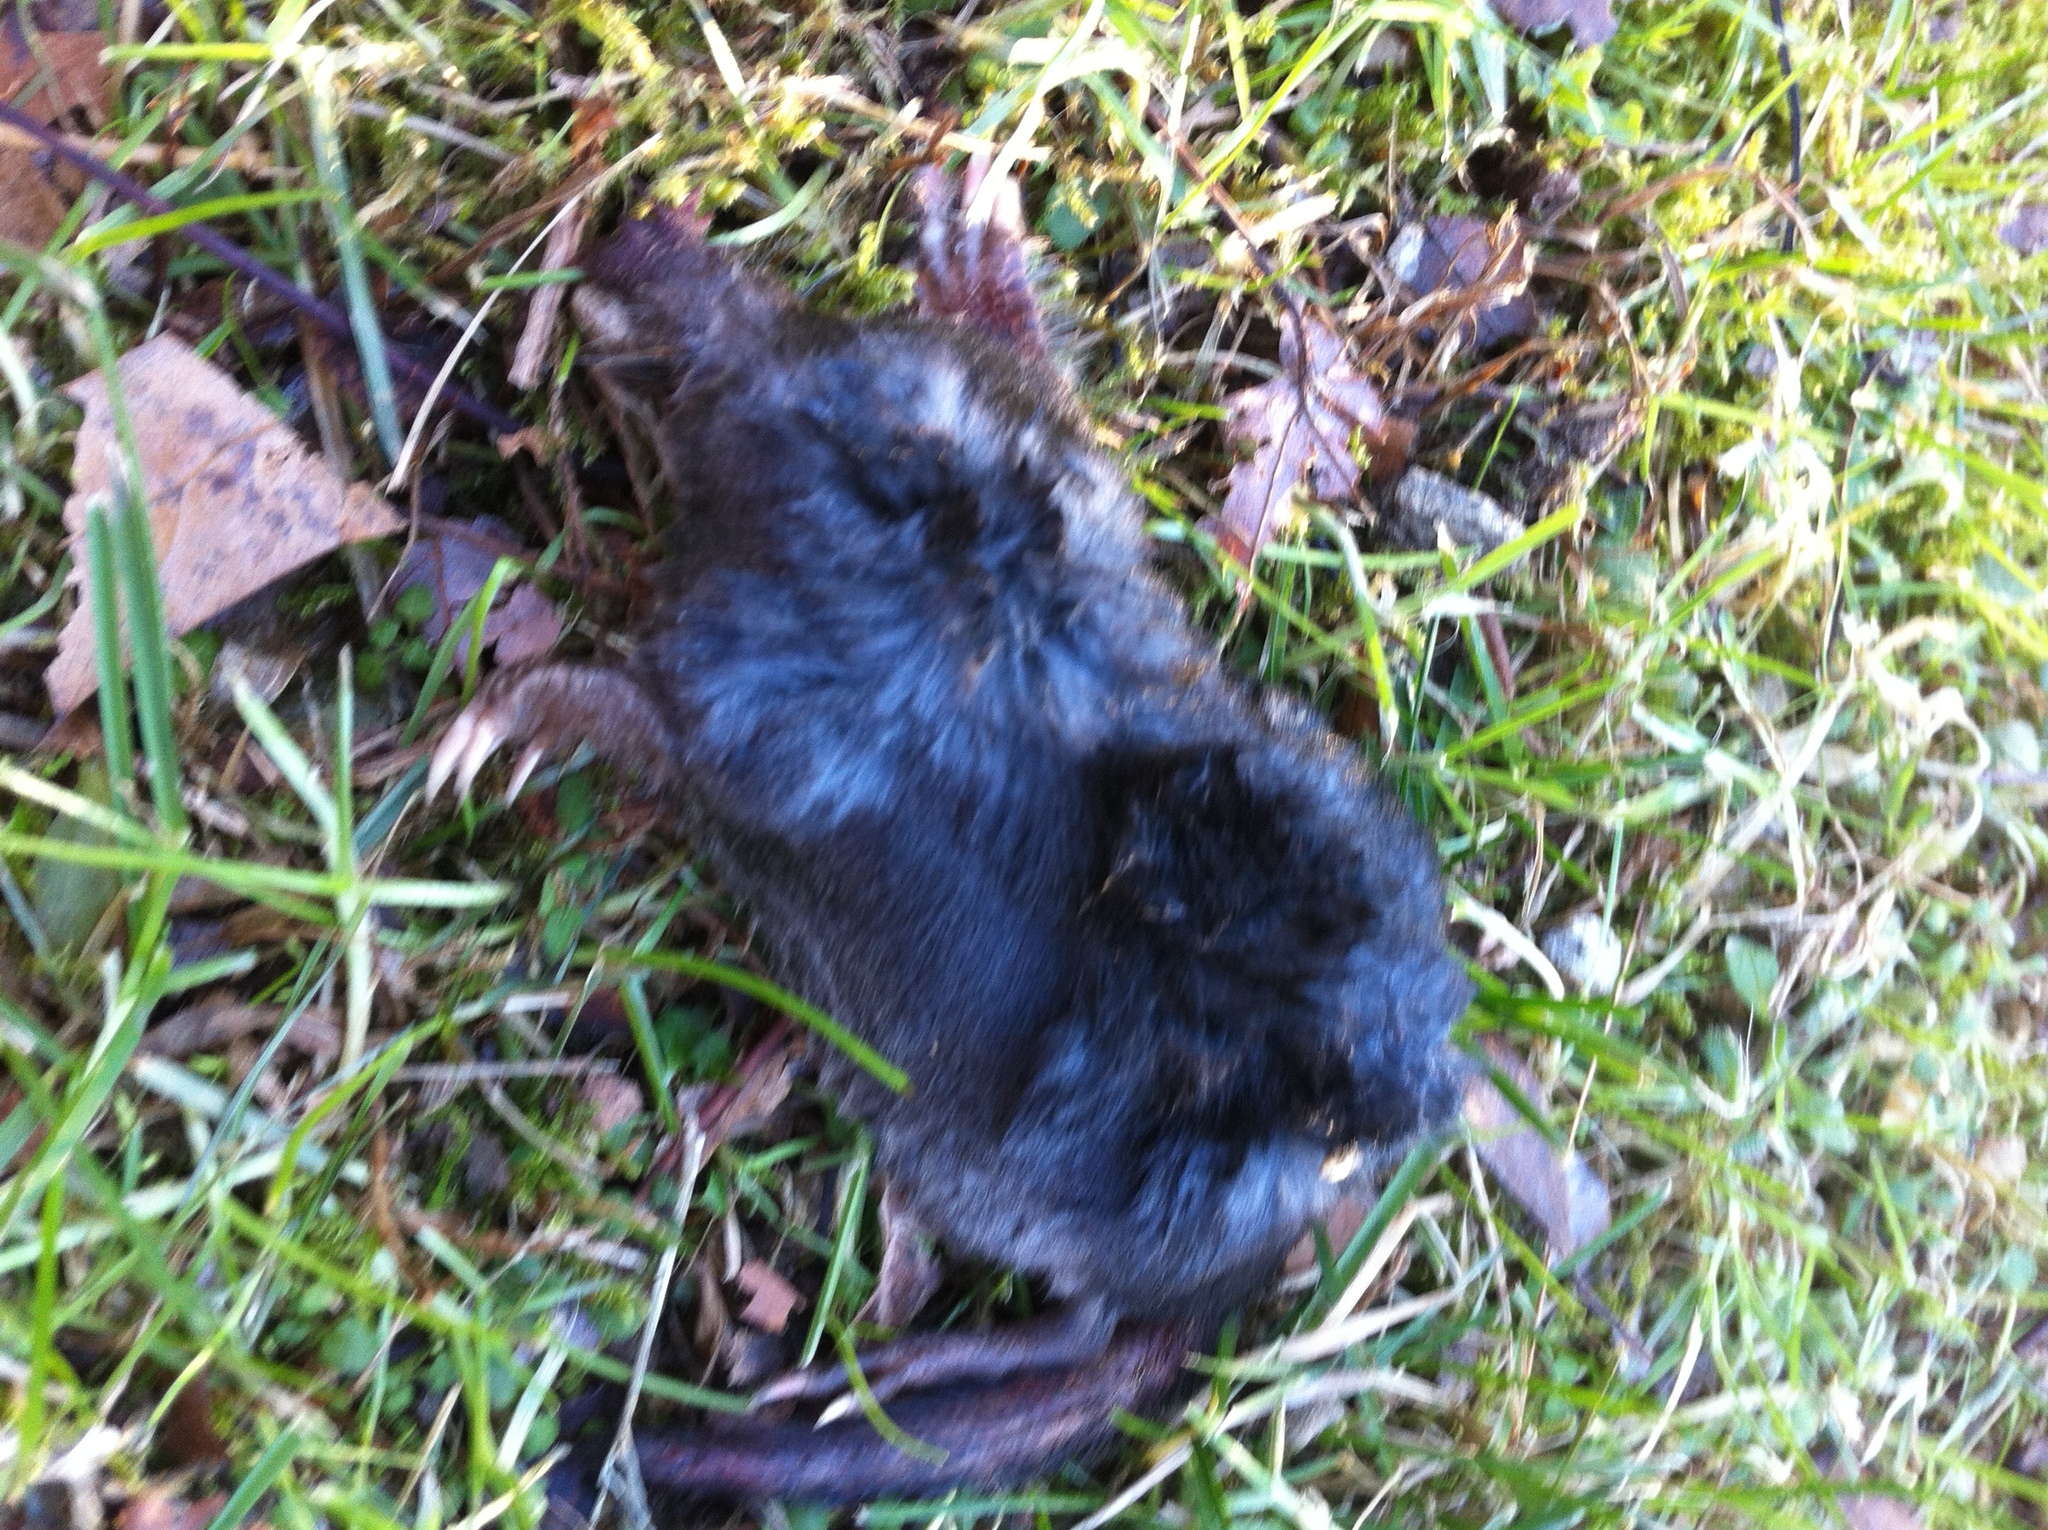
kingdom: Animalia
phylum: Chordata
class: Mammalia
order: Soricomorpha
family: Talpidae
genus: Condylura
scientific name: Condylura cristata
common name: Star-nosed mole
